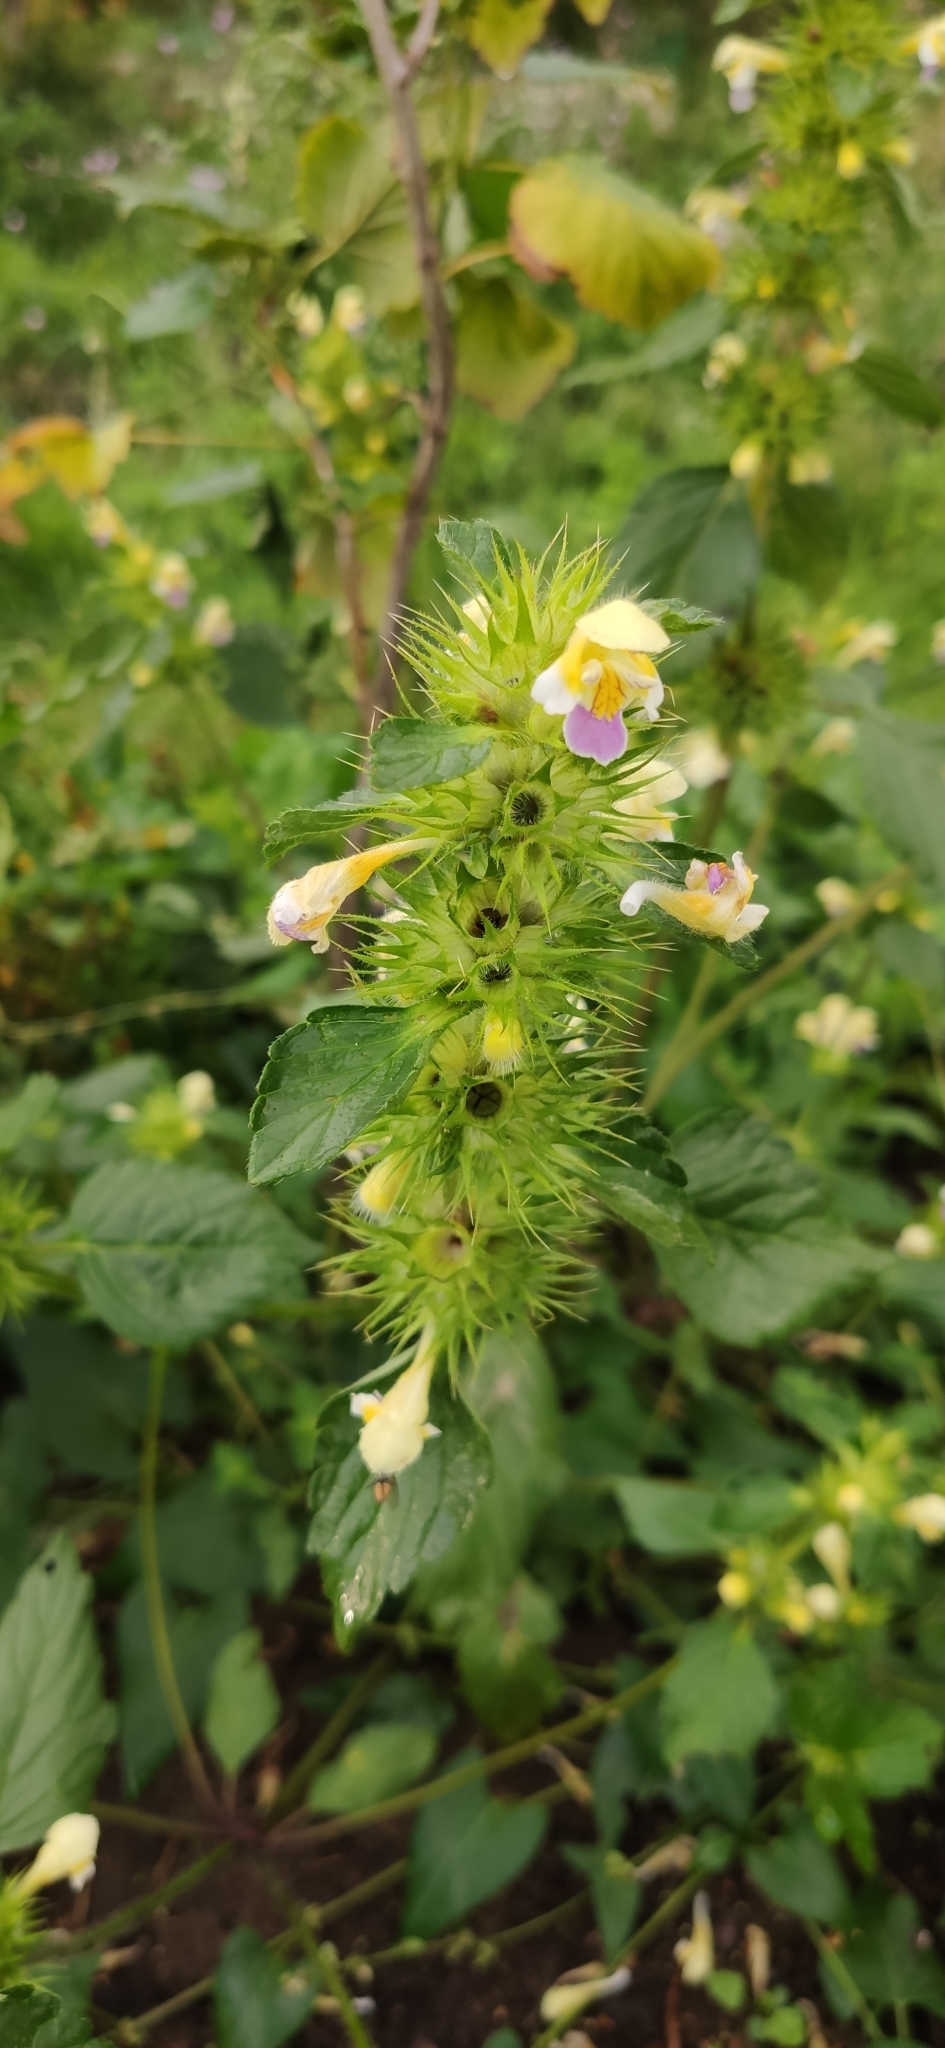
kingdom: Plantae
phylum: Tracheophyta
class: Magnoliopsida
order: Lamiales
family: Lamiaceae
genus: Galeopsis
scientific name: Galeopsis speciosa
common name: Large-flowered hemp-nettle
